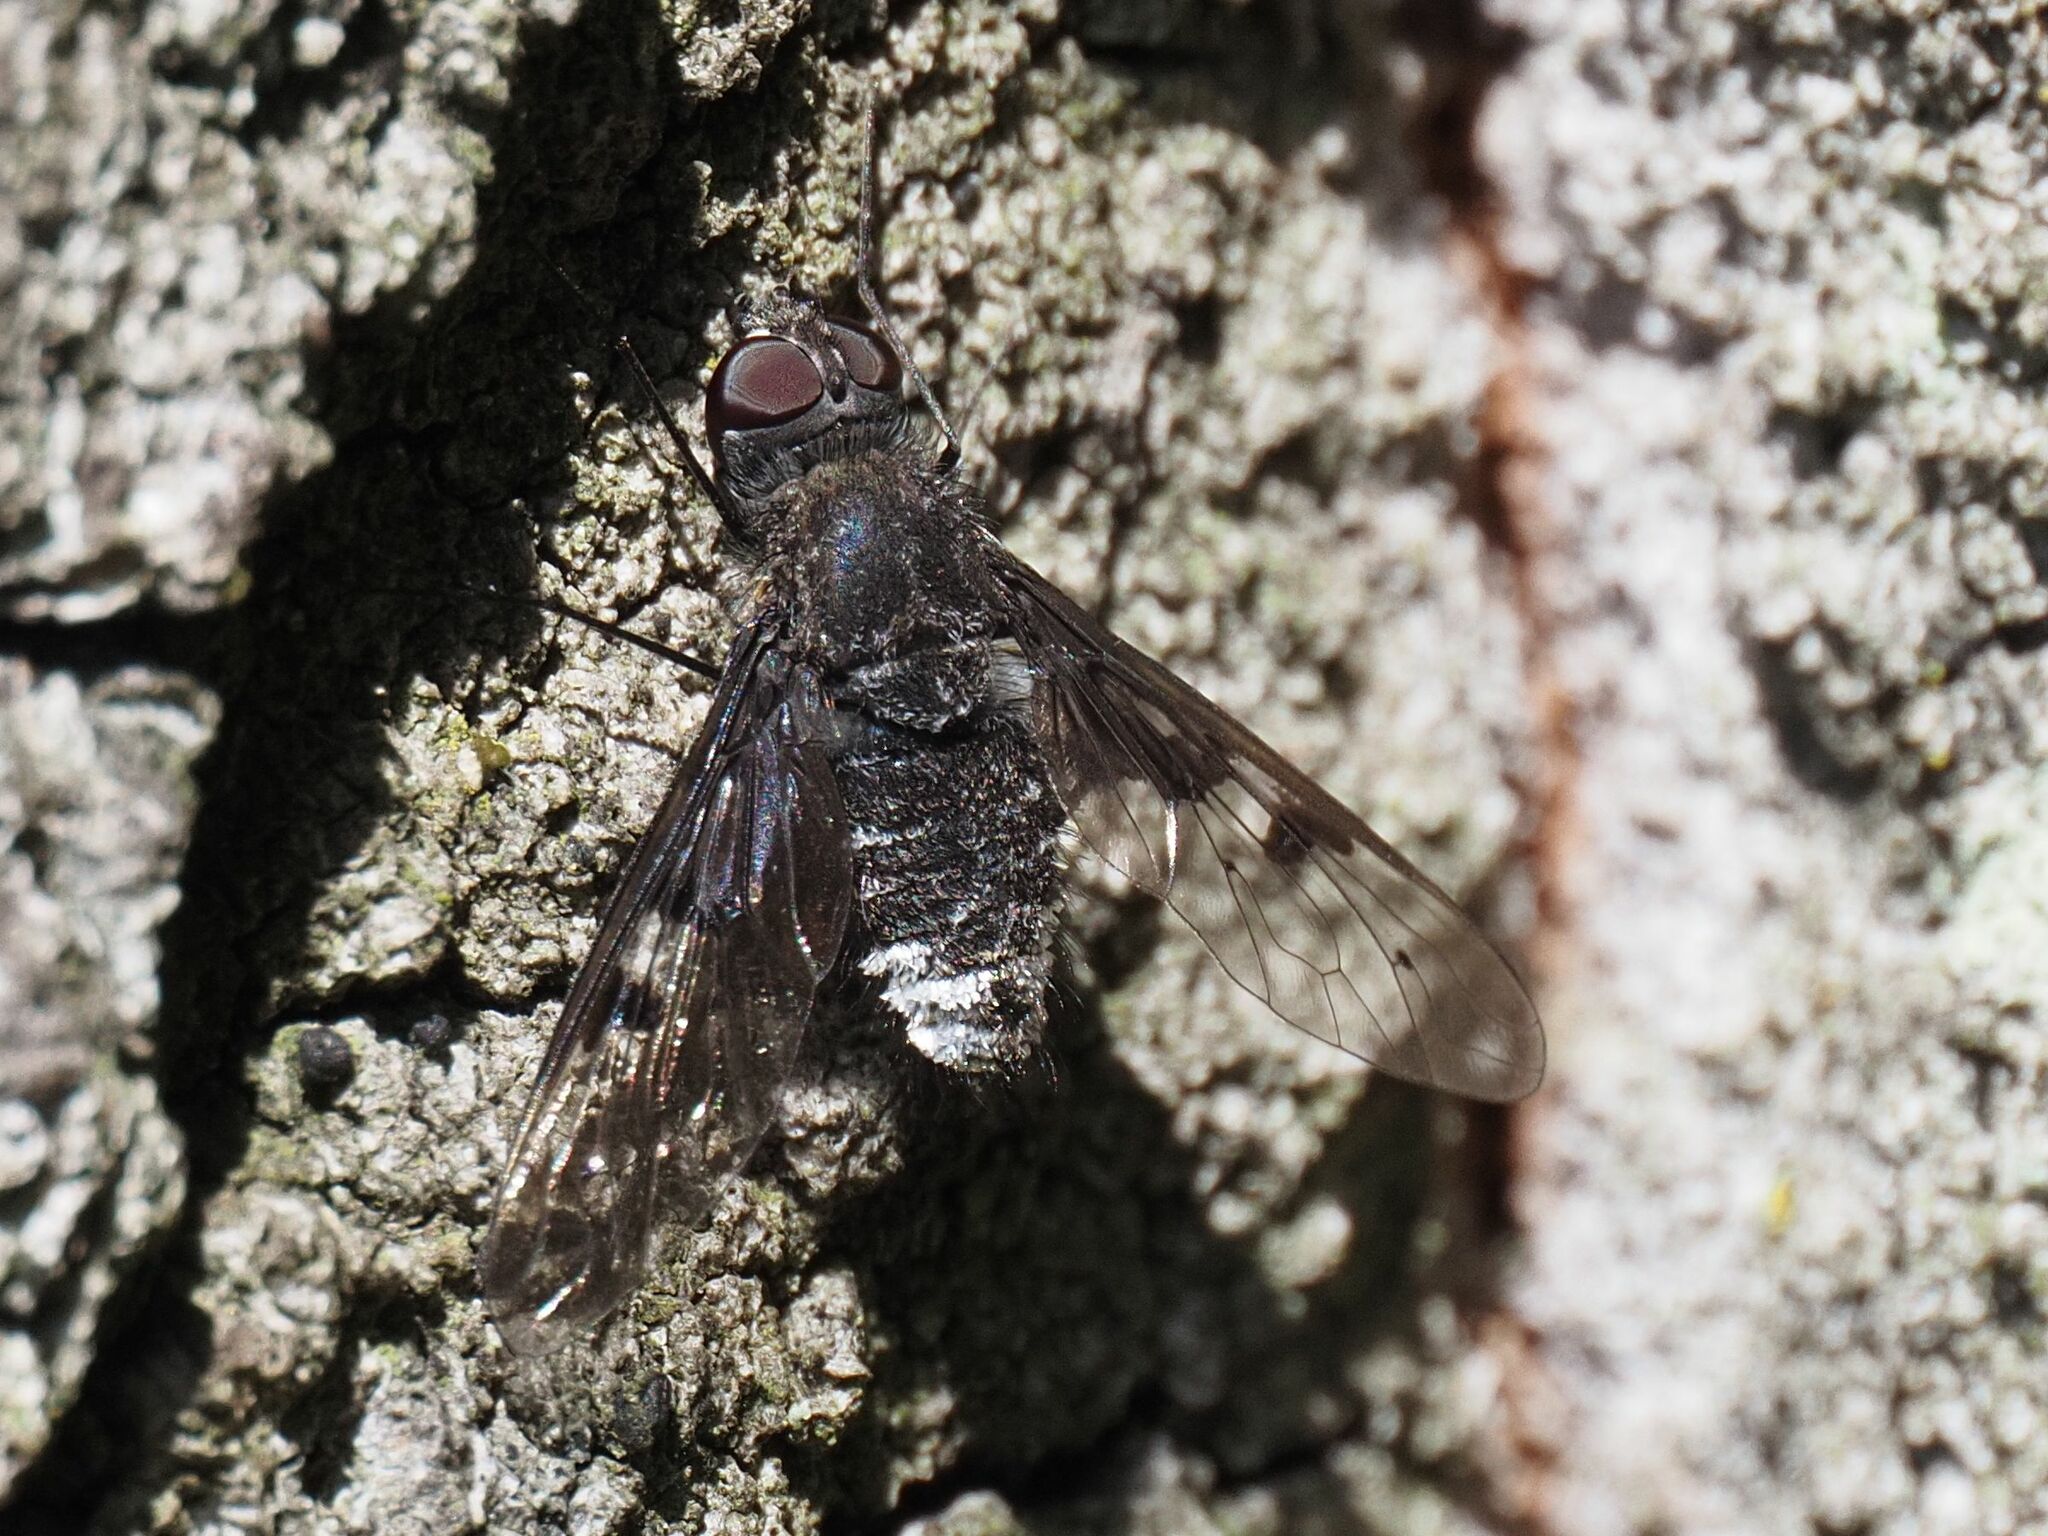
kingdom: Animalia
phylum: Arthropoda
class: Insecta
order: Diptera
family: Bombyliidae
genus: Anthrax
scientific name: Anthrax trifasciatus
